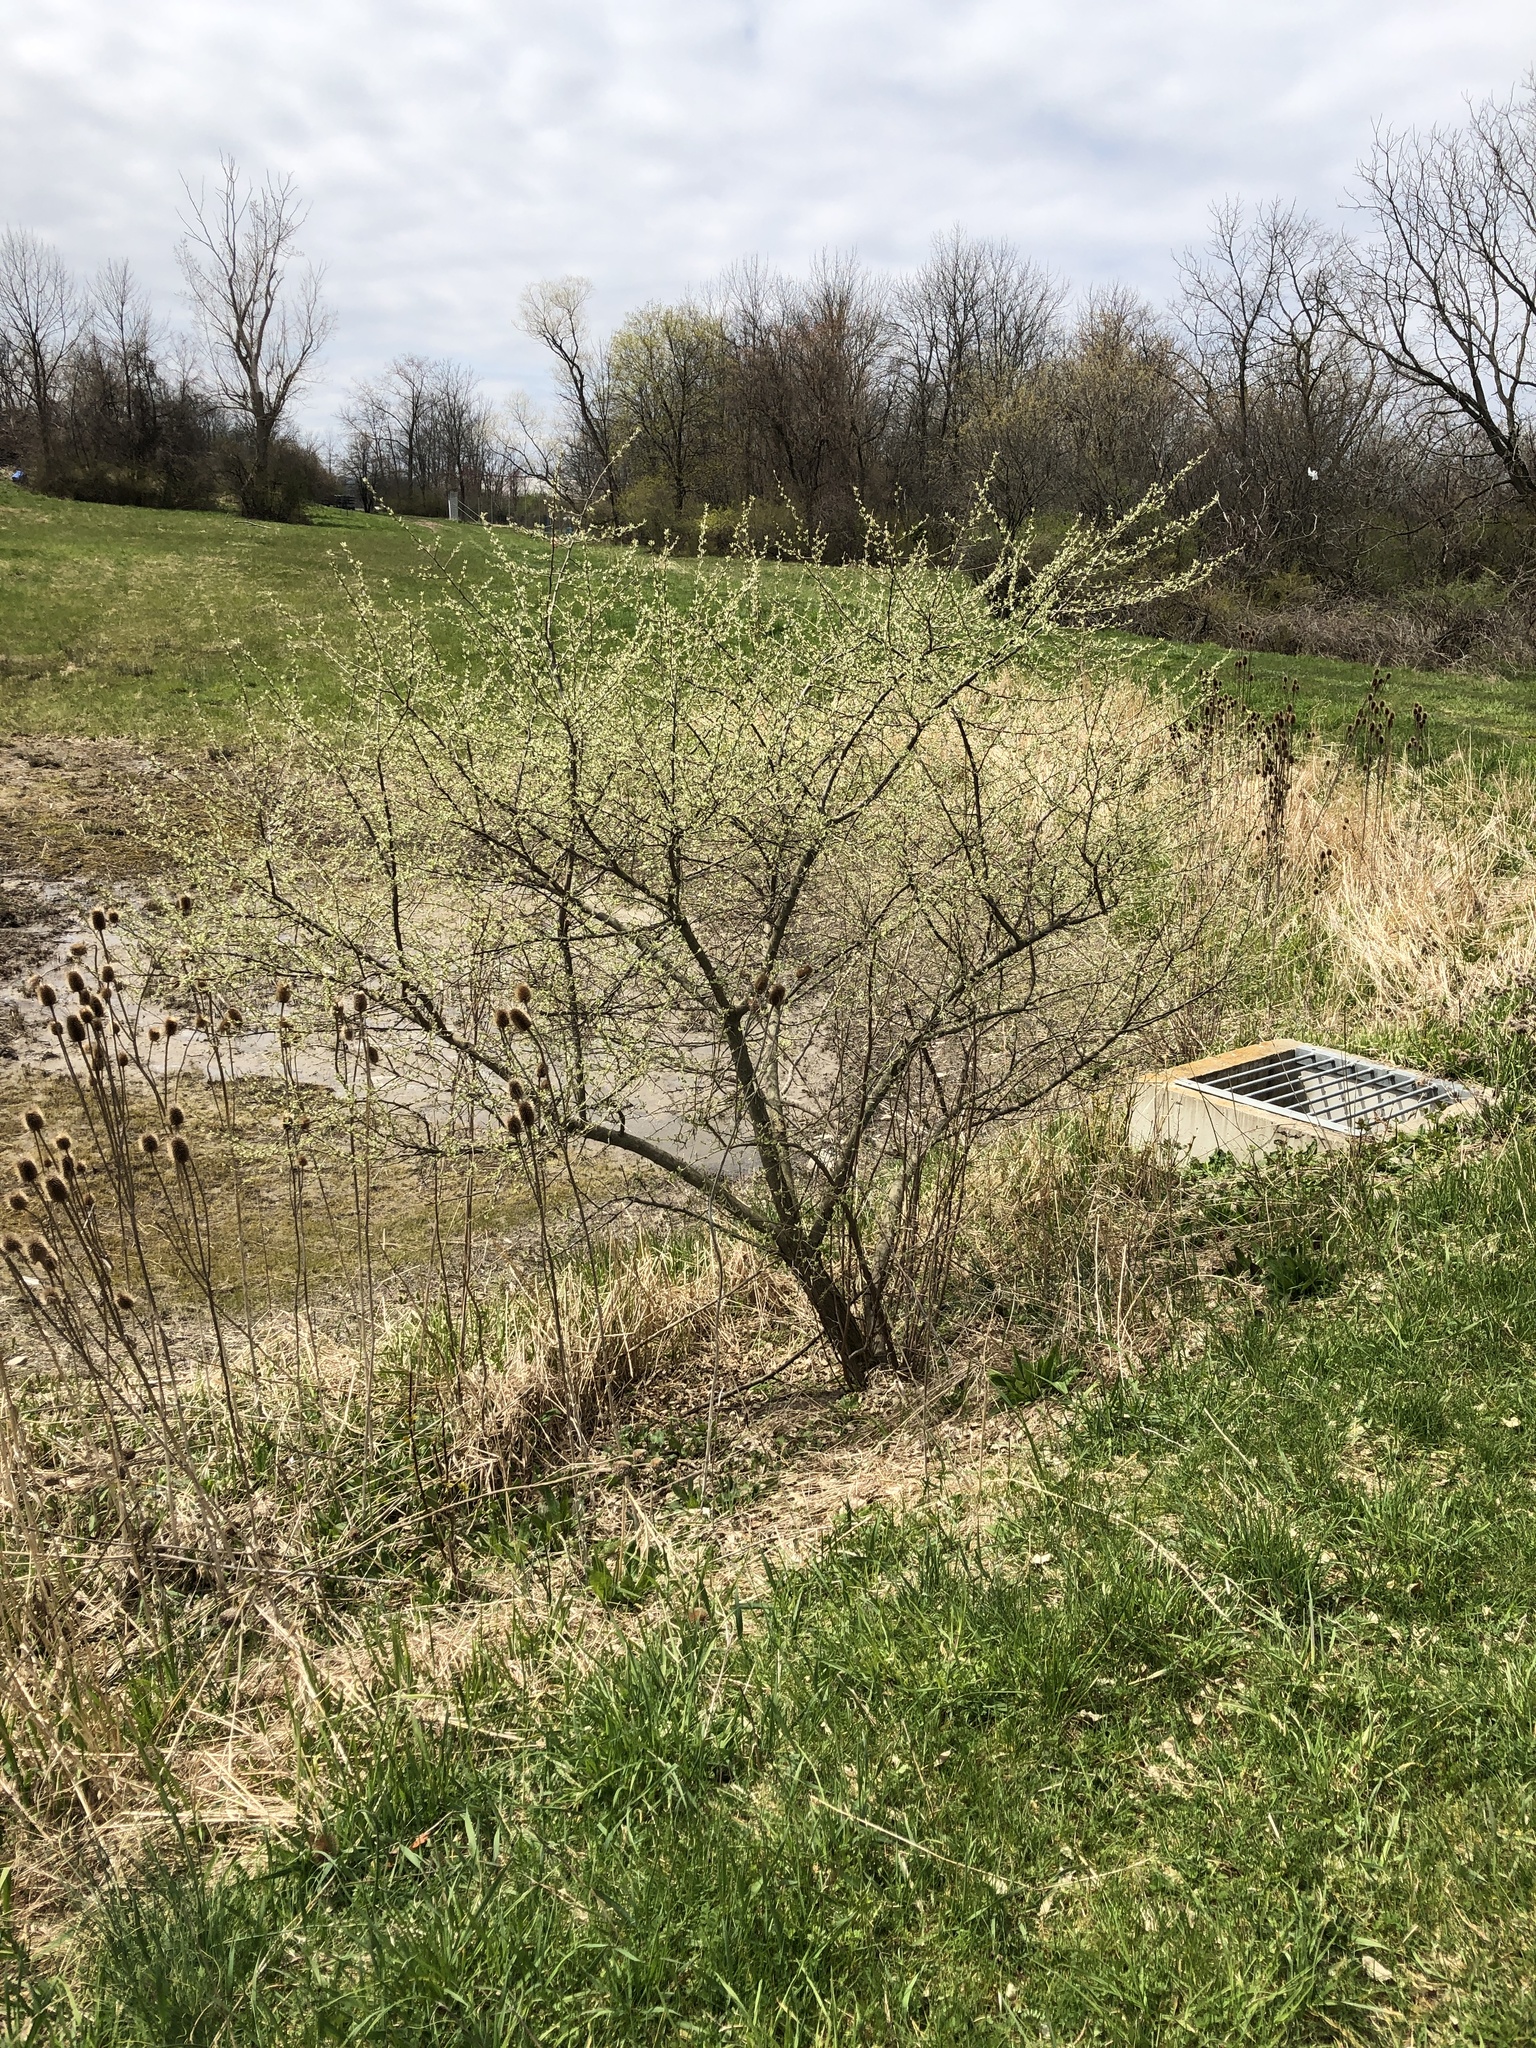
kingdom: Plantae
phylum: Tracheophyta
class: Magnoliopsida
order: Rosales
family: Elaeagnaceae
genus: Elaeagnus
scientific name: Elaeagnus umbellata
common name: Autumn olive
